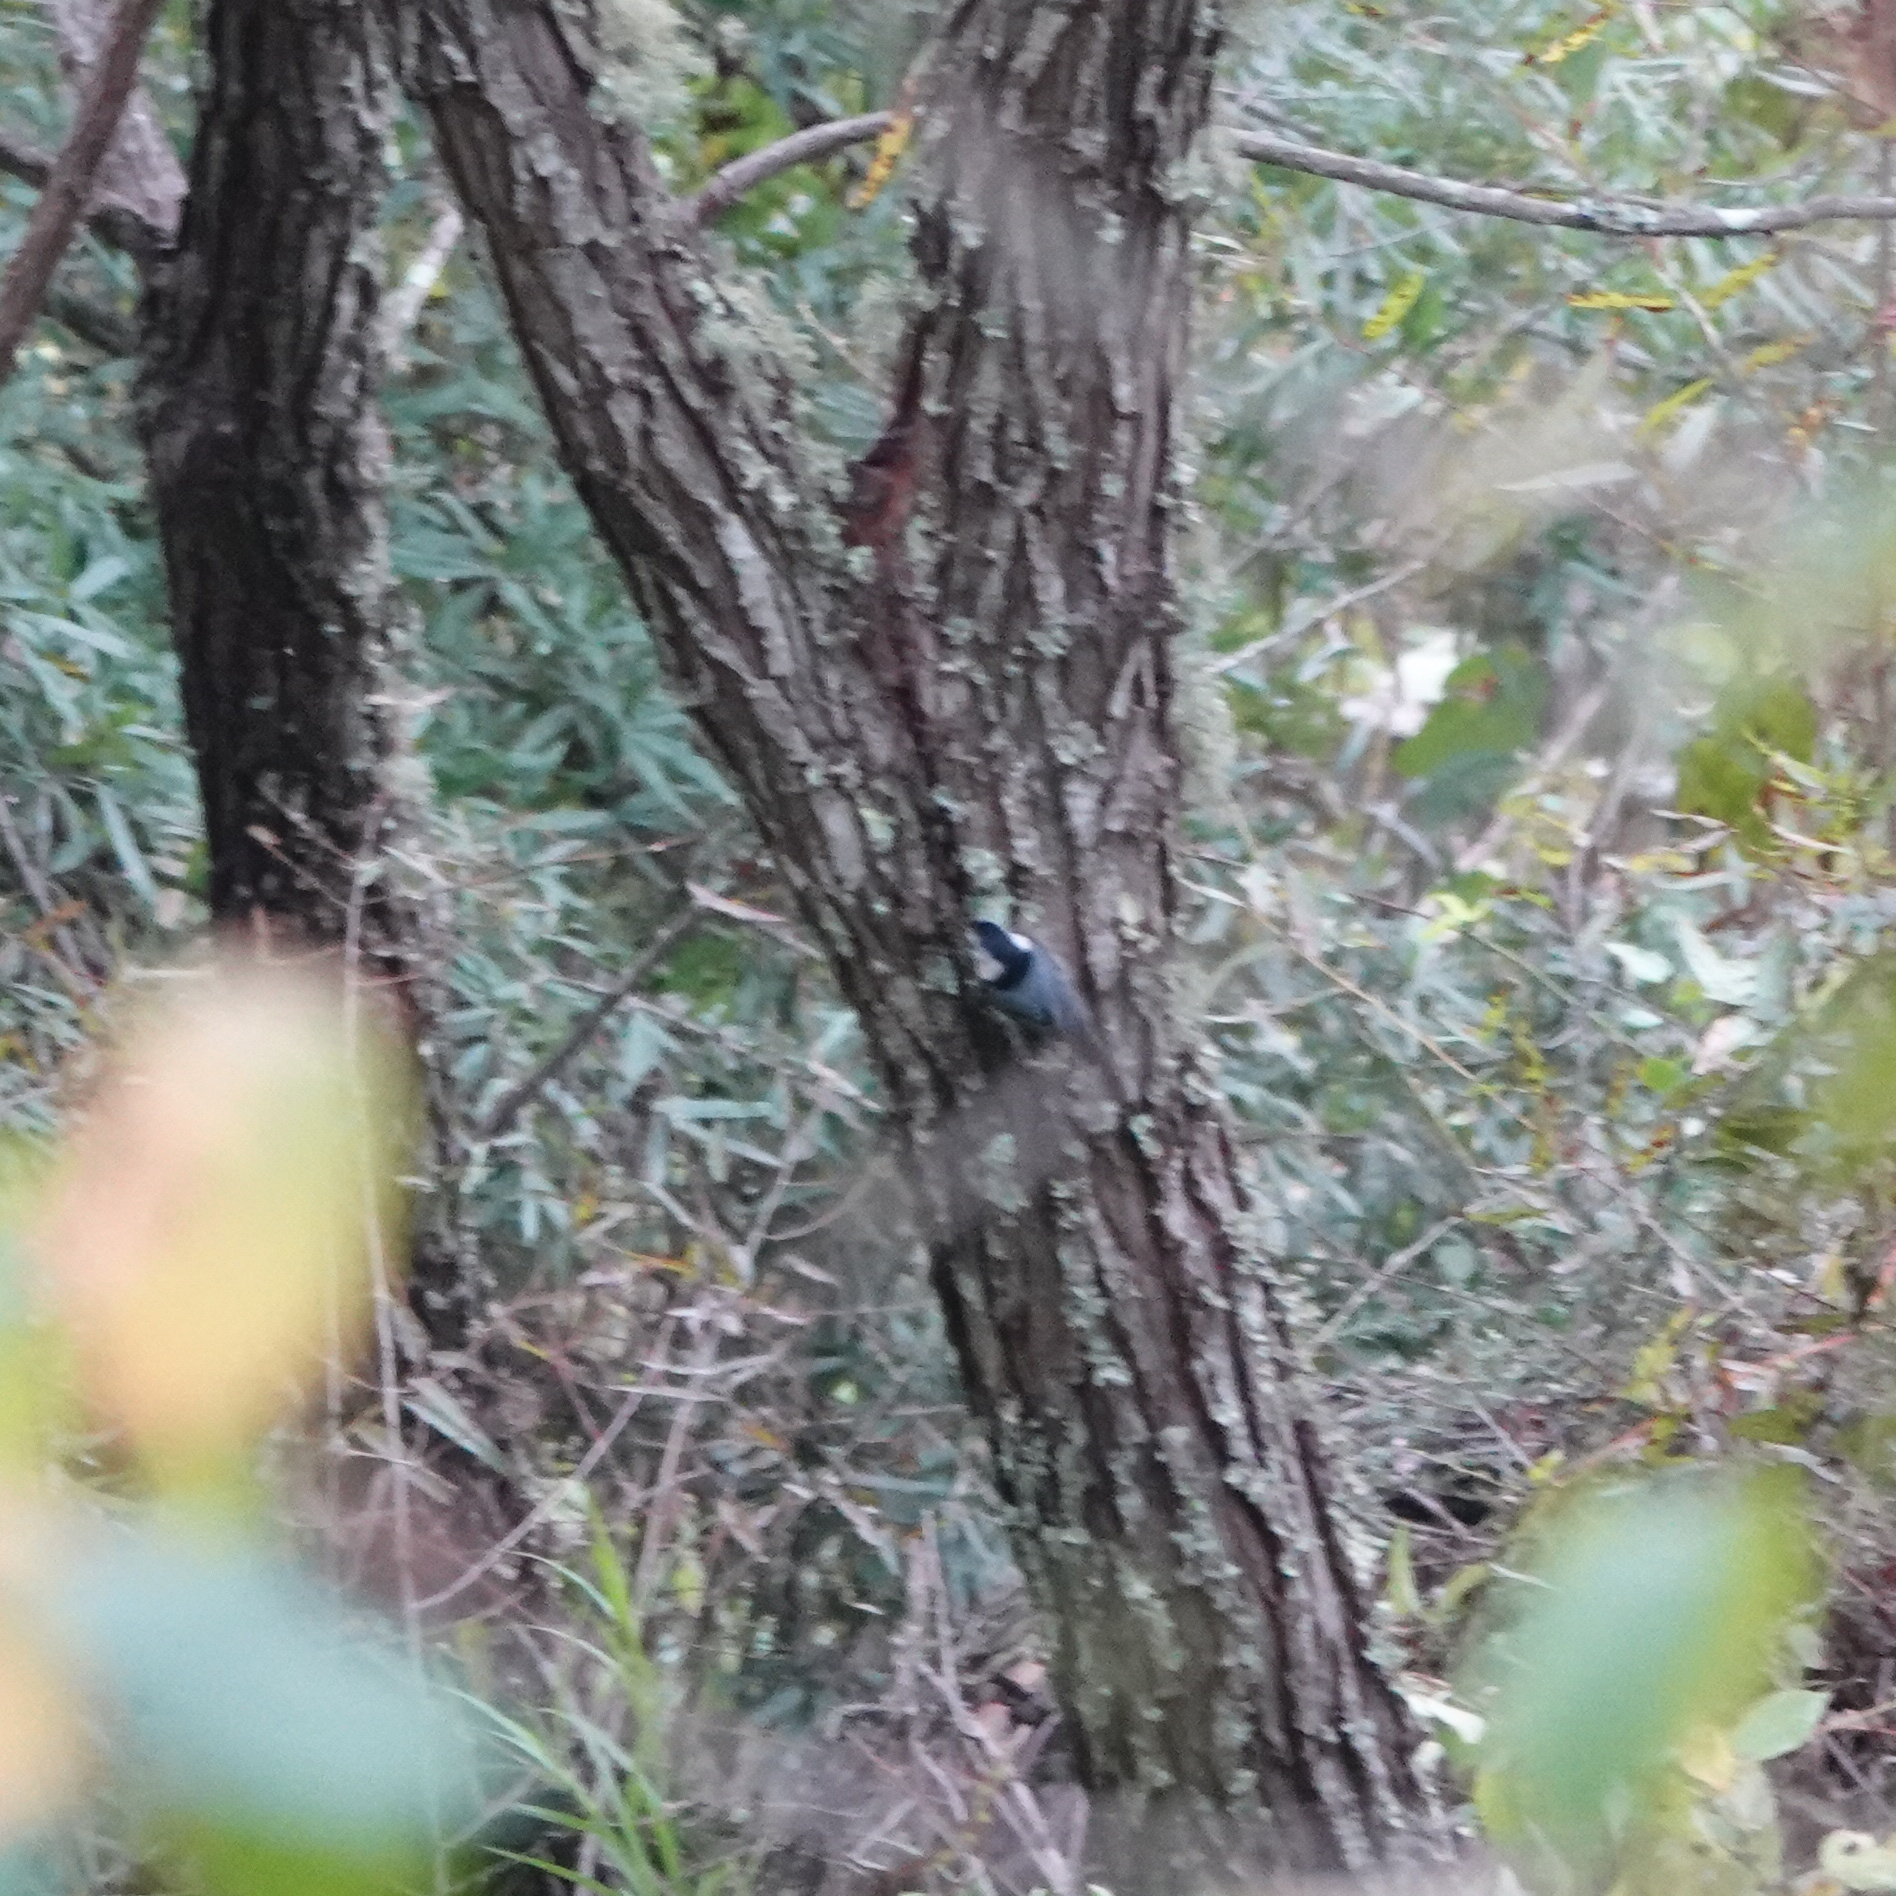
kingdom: Animalia
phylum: Chordata
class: Aves
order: Passeriformes
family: Sittidae
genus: Sitta
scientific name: Sitta carolinensis
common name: White-breasted nuthatch
